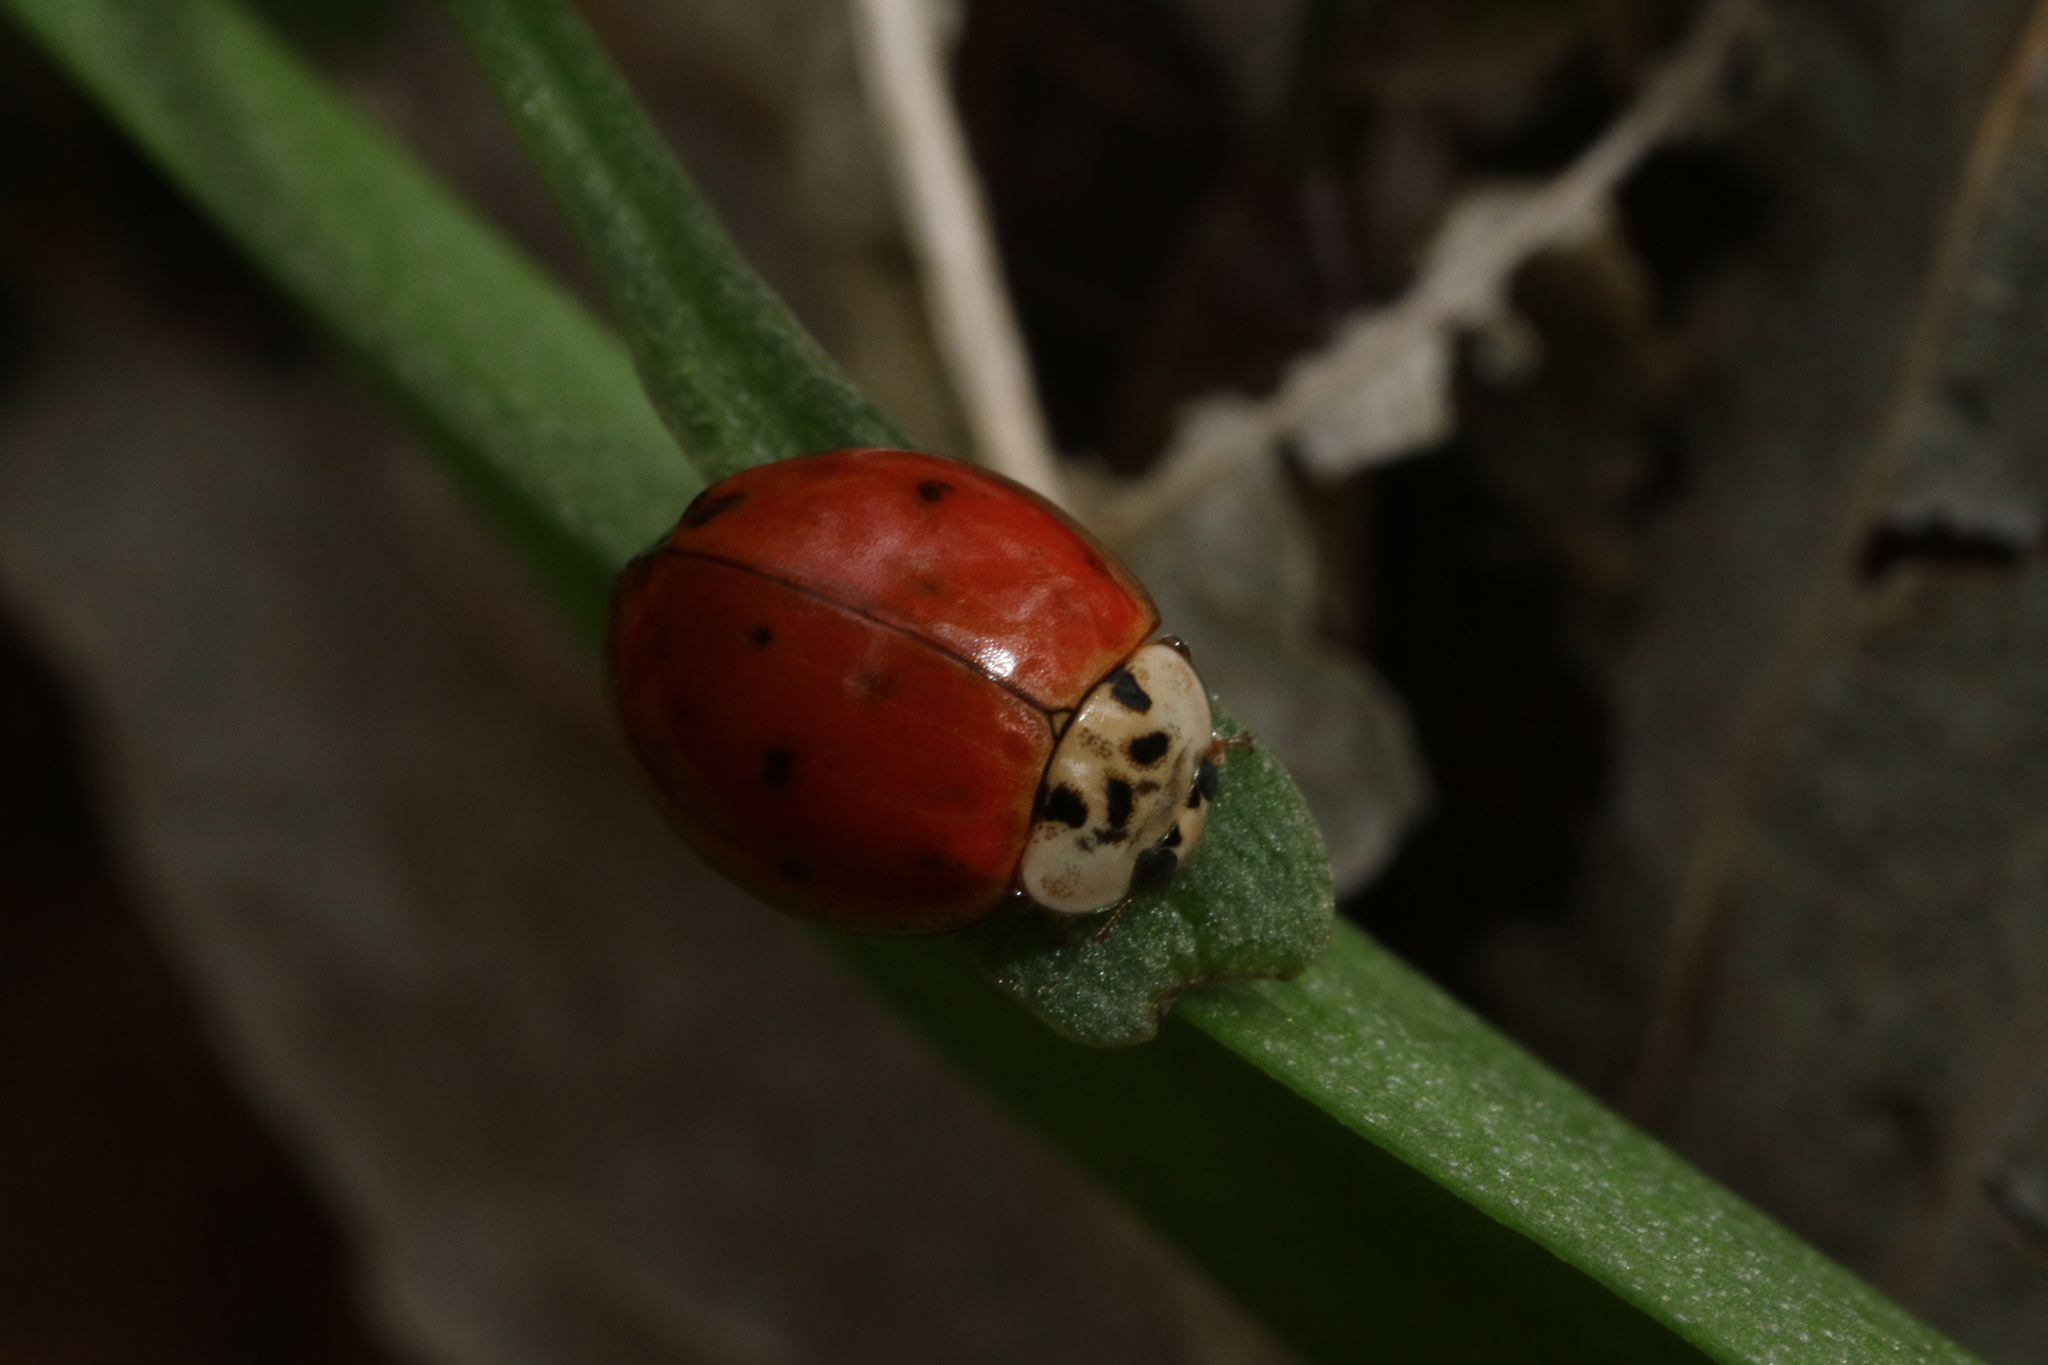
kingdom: Animalia
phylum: Arthropoda
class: Insecta
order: Coleoptera
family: Coccinellidae
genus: Harmonia
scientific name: Harmonia axyridis
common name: Harlequin ladybird
